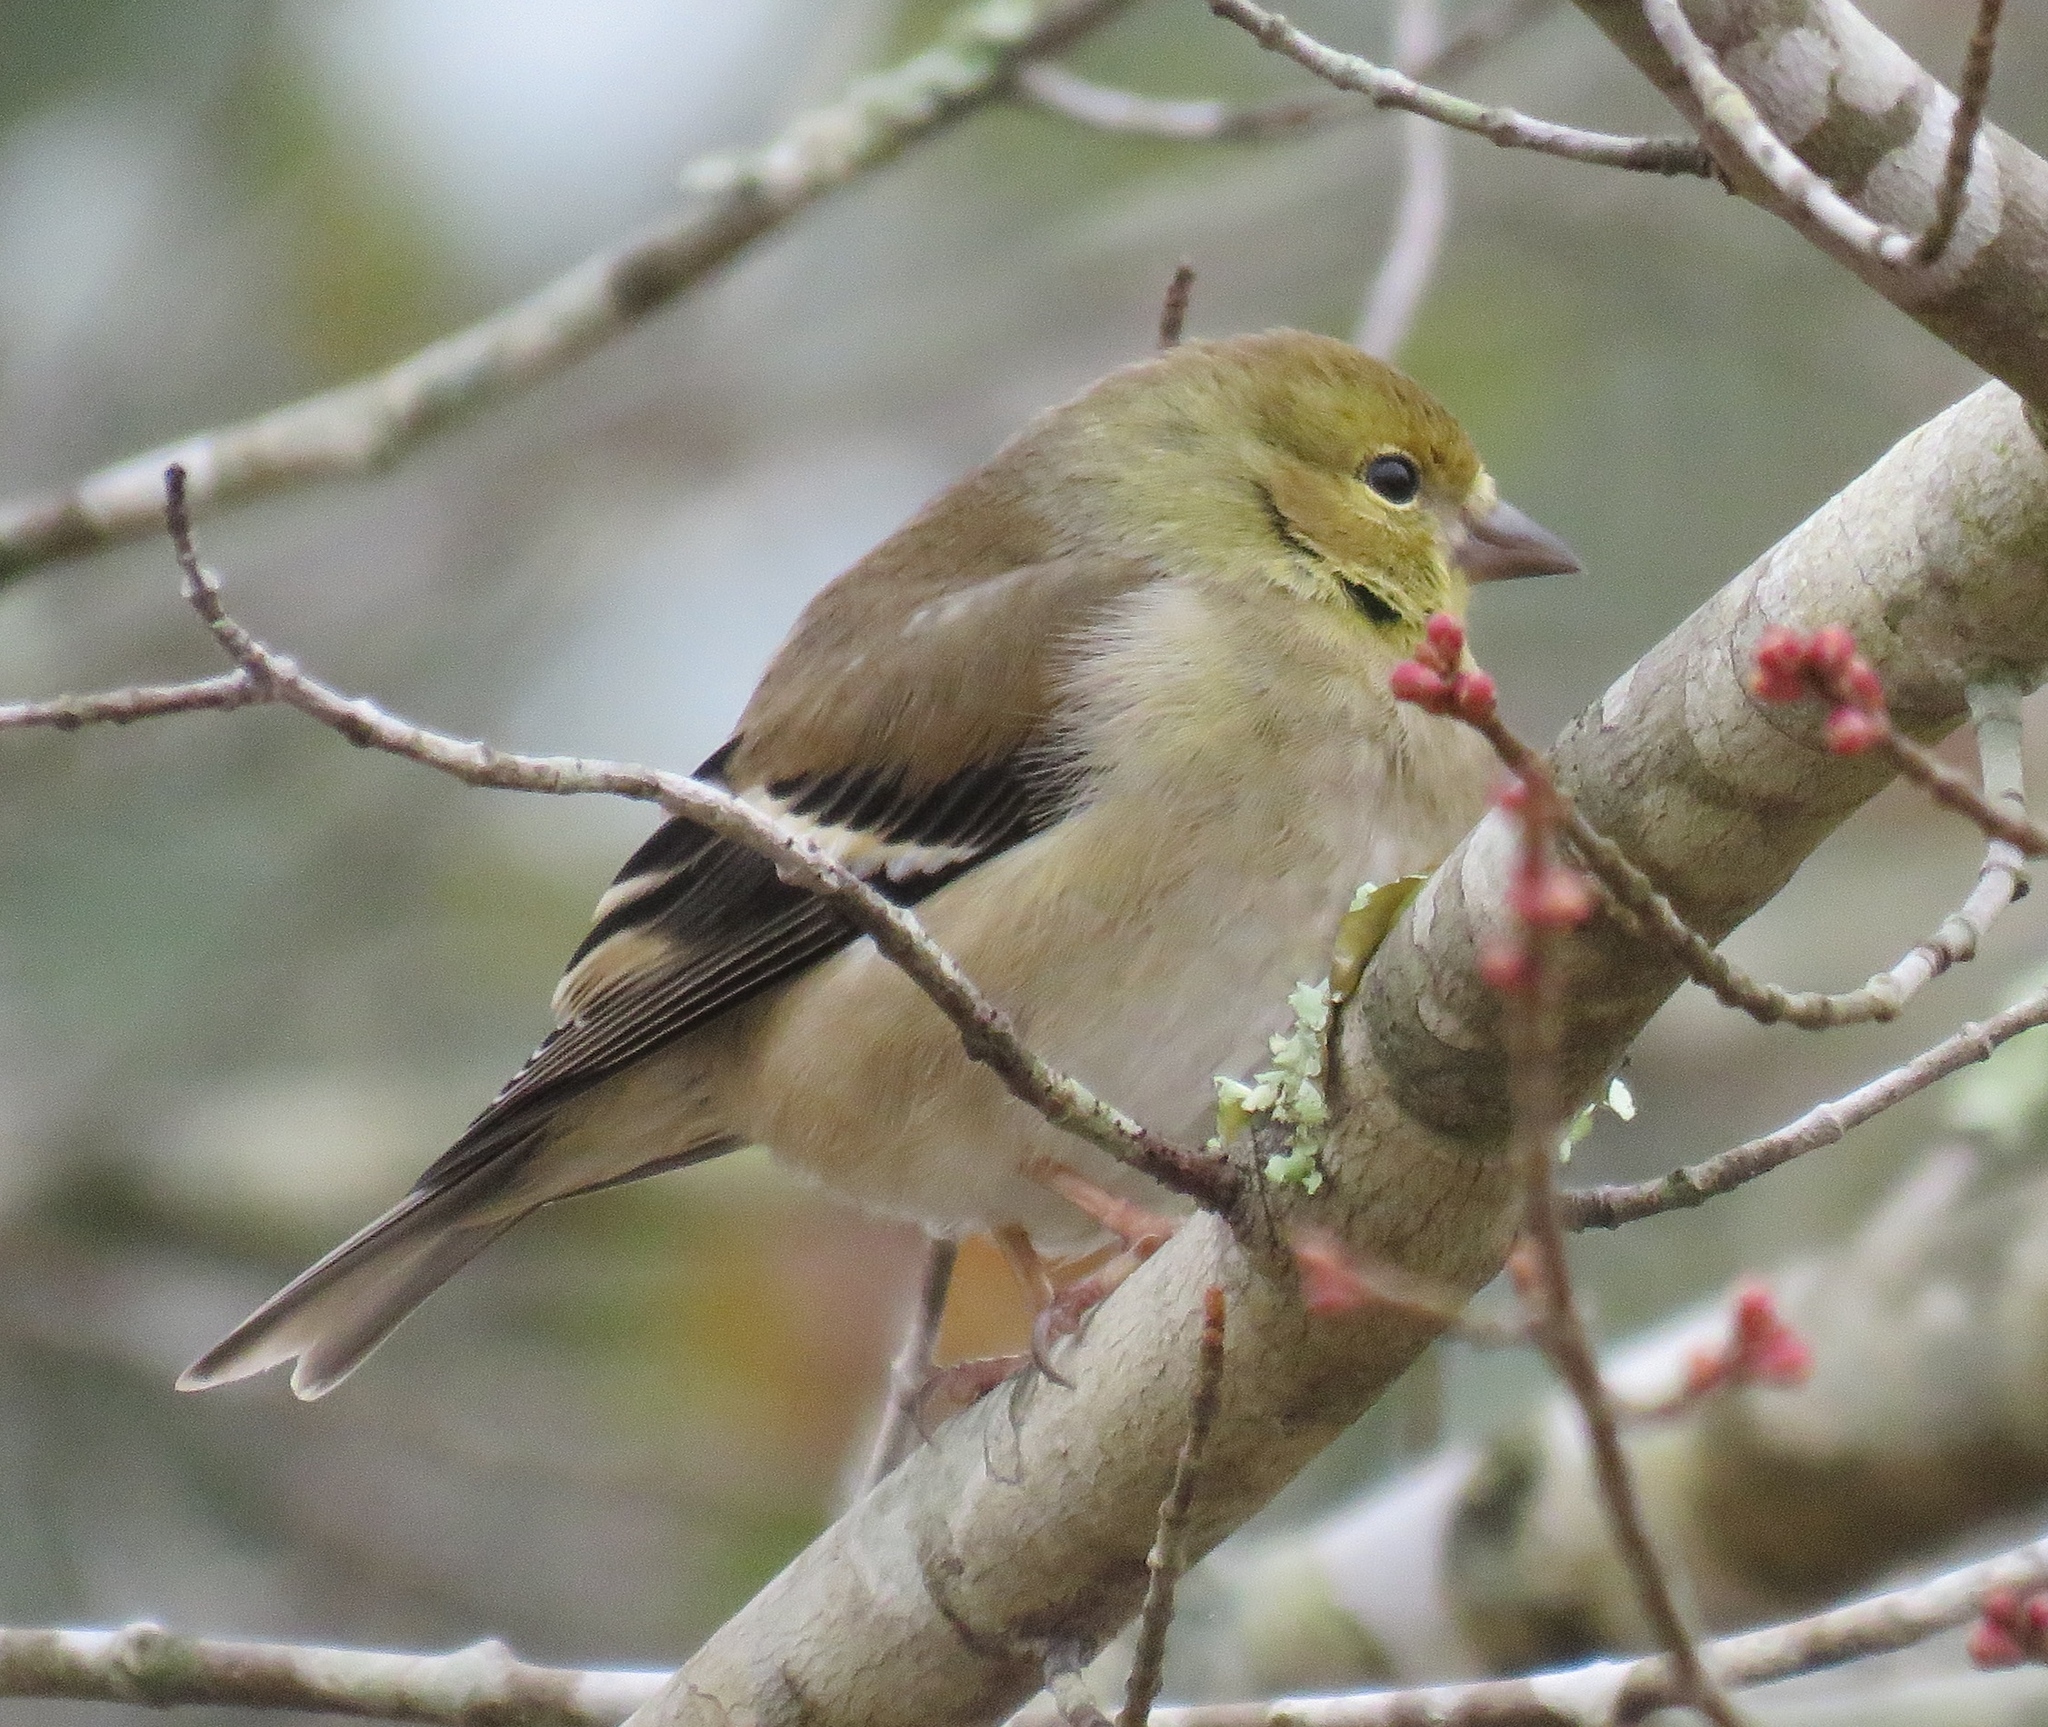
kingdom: Animalia
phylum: Chordata
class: Aves
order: Passeriformes
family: Fringillidae
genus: Spinus
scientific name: Spinus tristis
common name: American goldfinch
